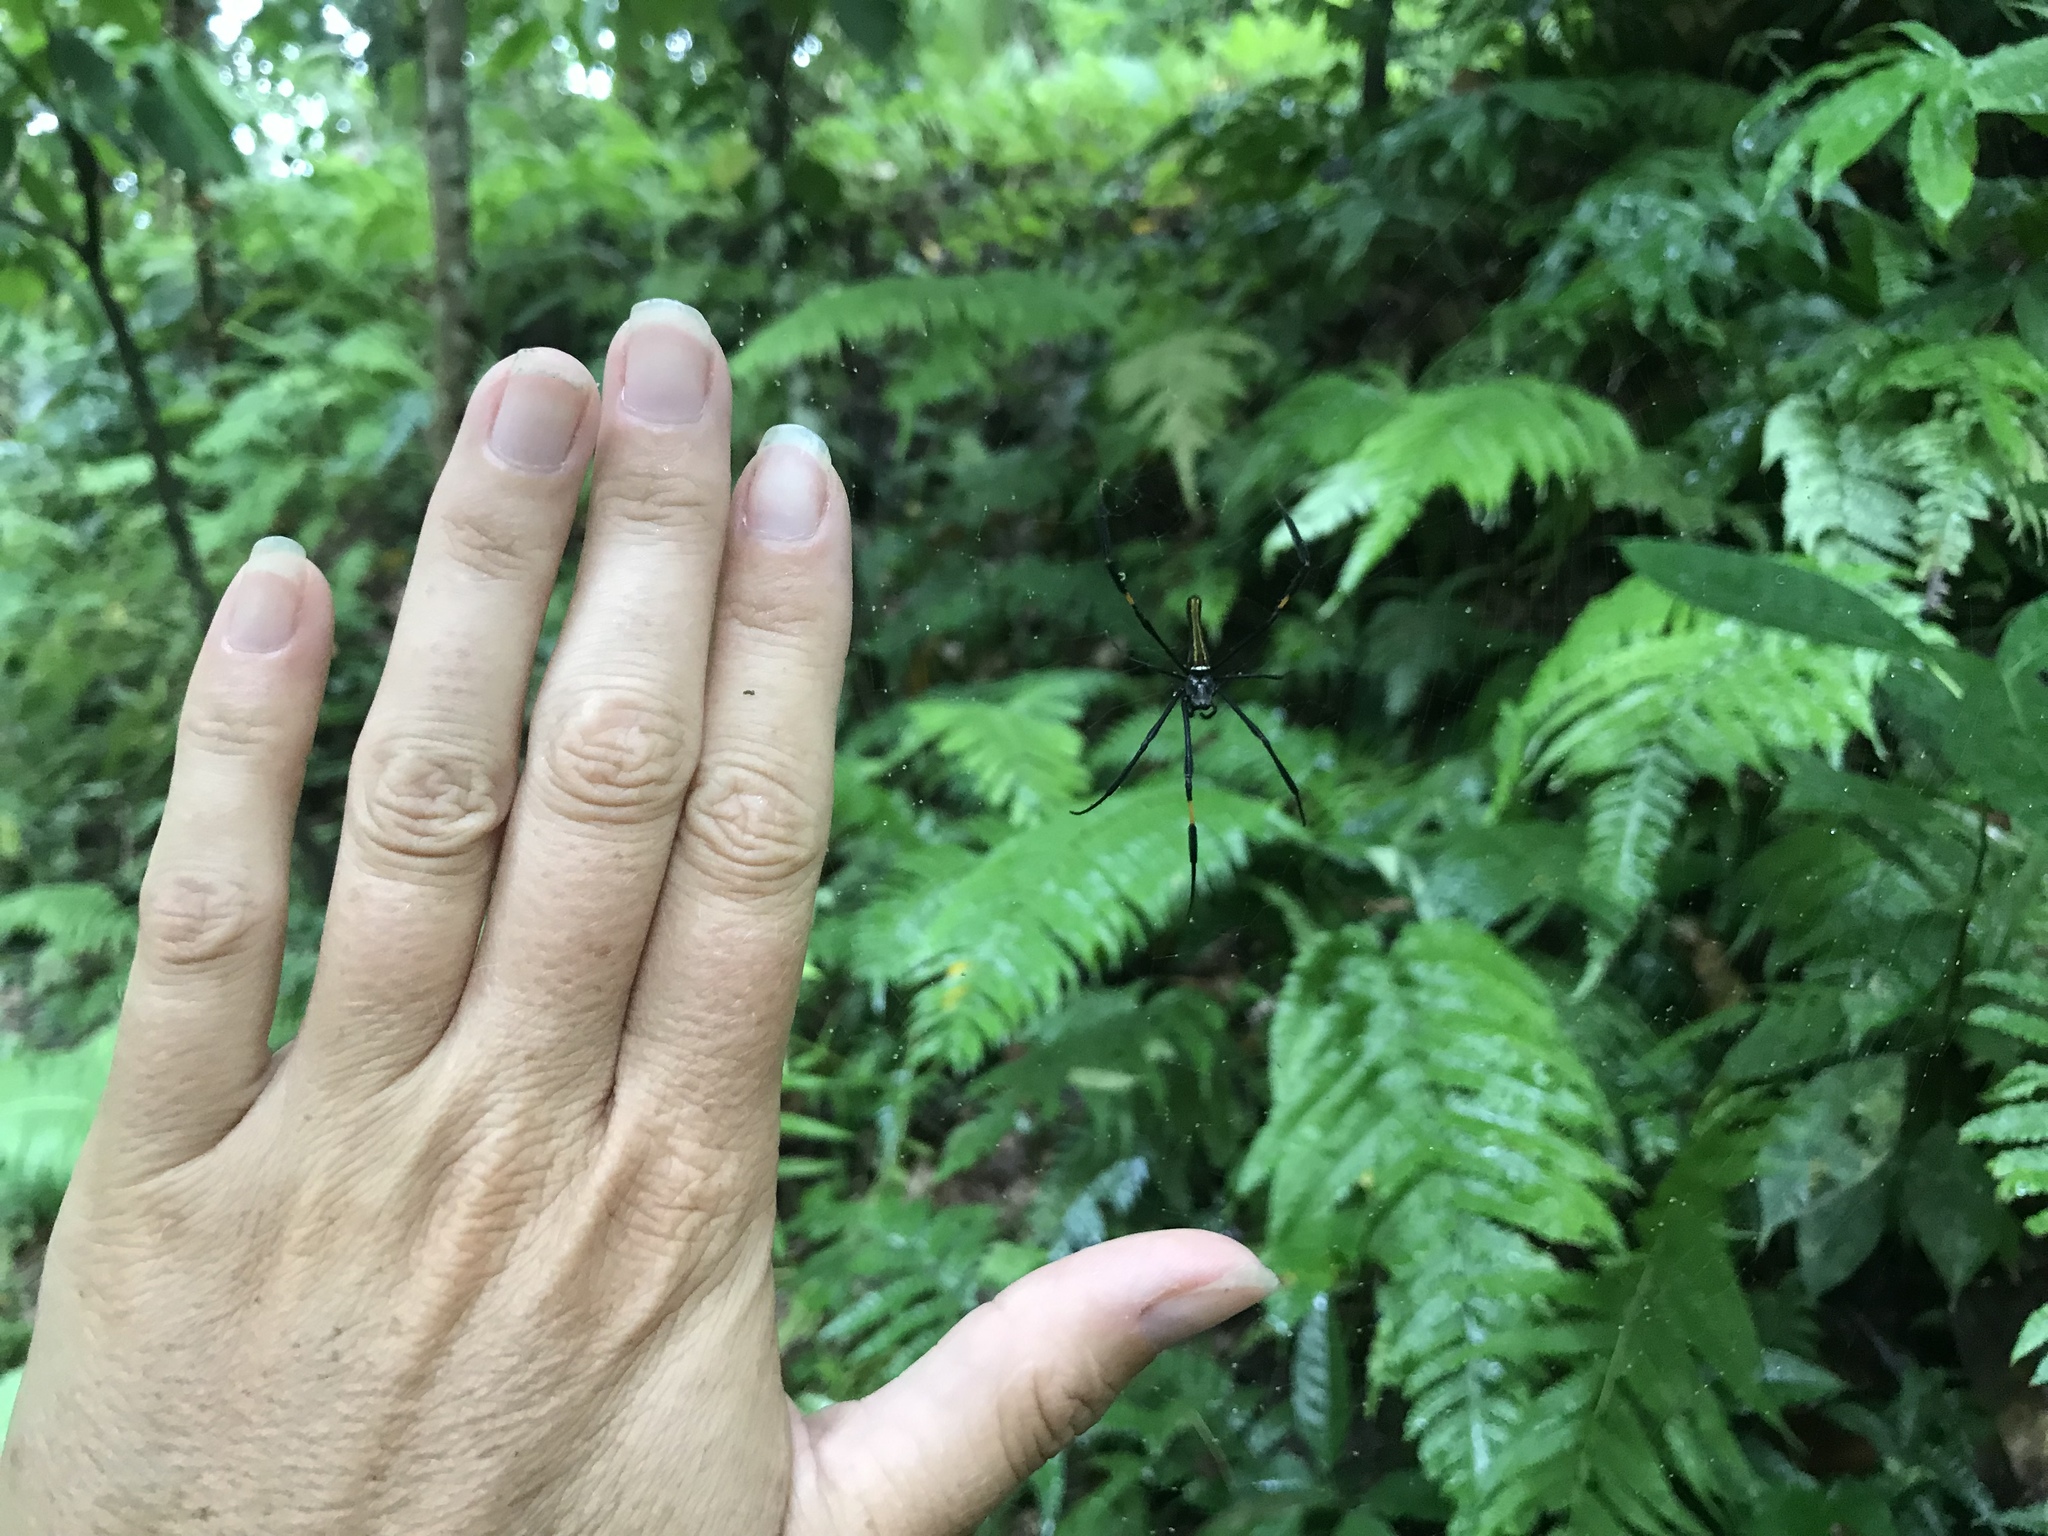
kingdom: Animalia
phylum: Arthropoda
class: Arachnida
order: Araneae
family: Araneidae
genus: Nephila
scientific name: Nephila pilipes
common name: Giant golden orb weaver
